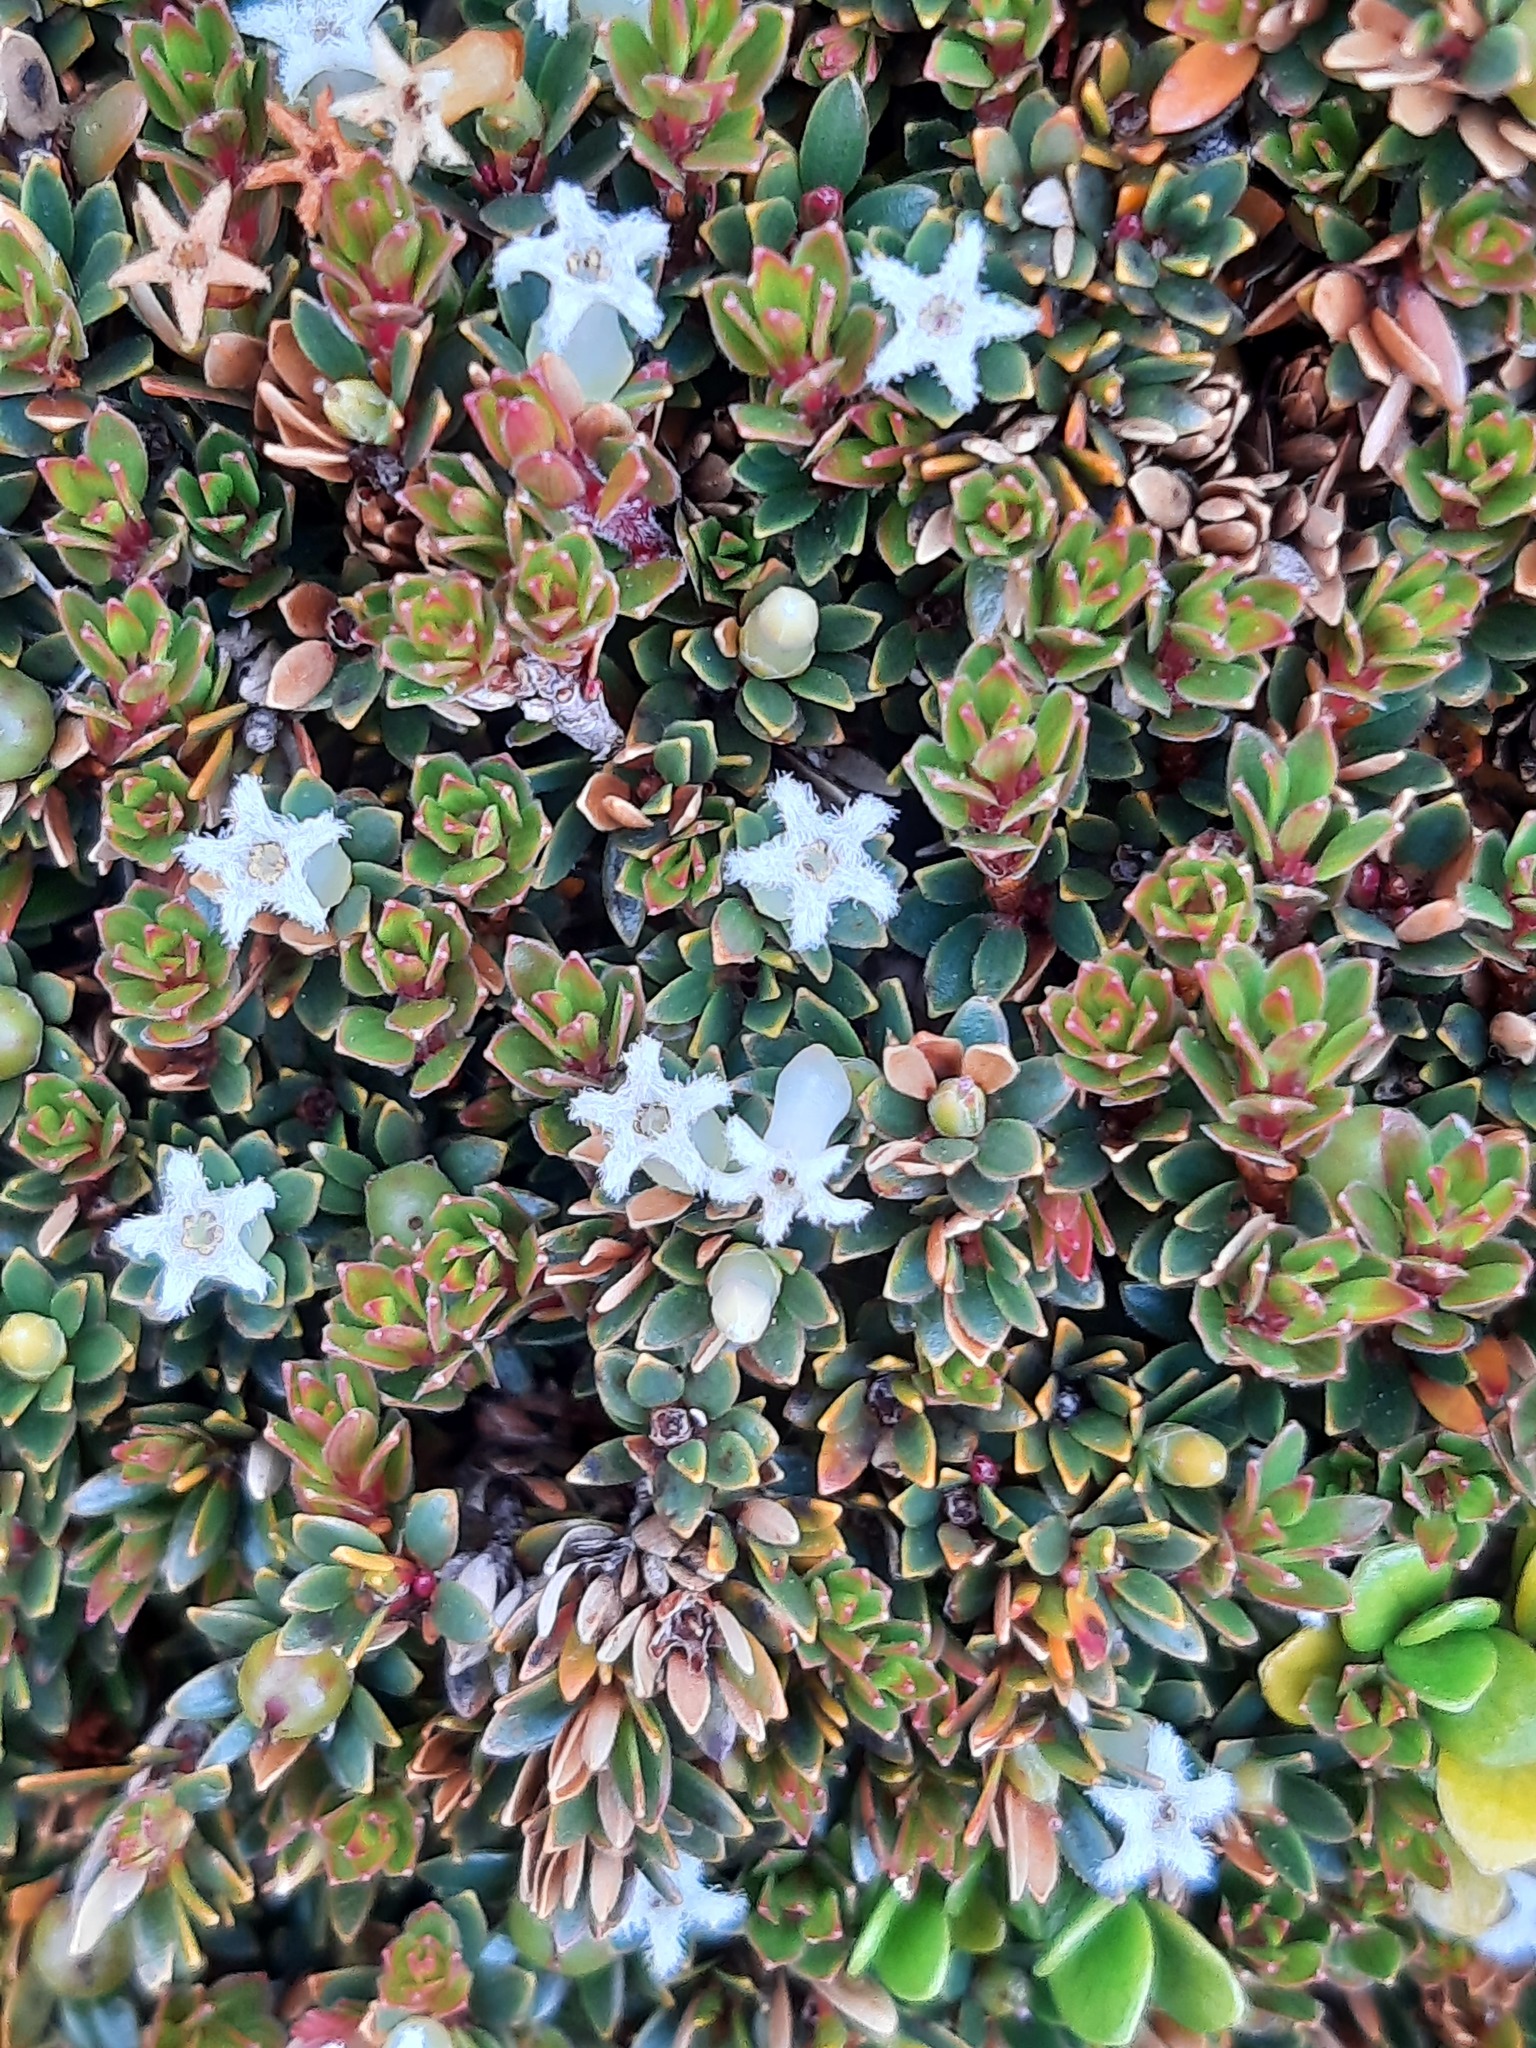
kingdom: Plantae
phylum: Tracheophyta
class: Magnoliopsida
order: Ericales
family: Ericaceae
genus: Pentachondra
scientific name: Pentachondra pumila
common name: Carpet-heath
